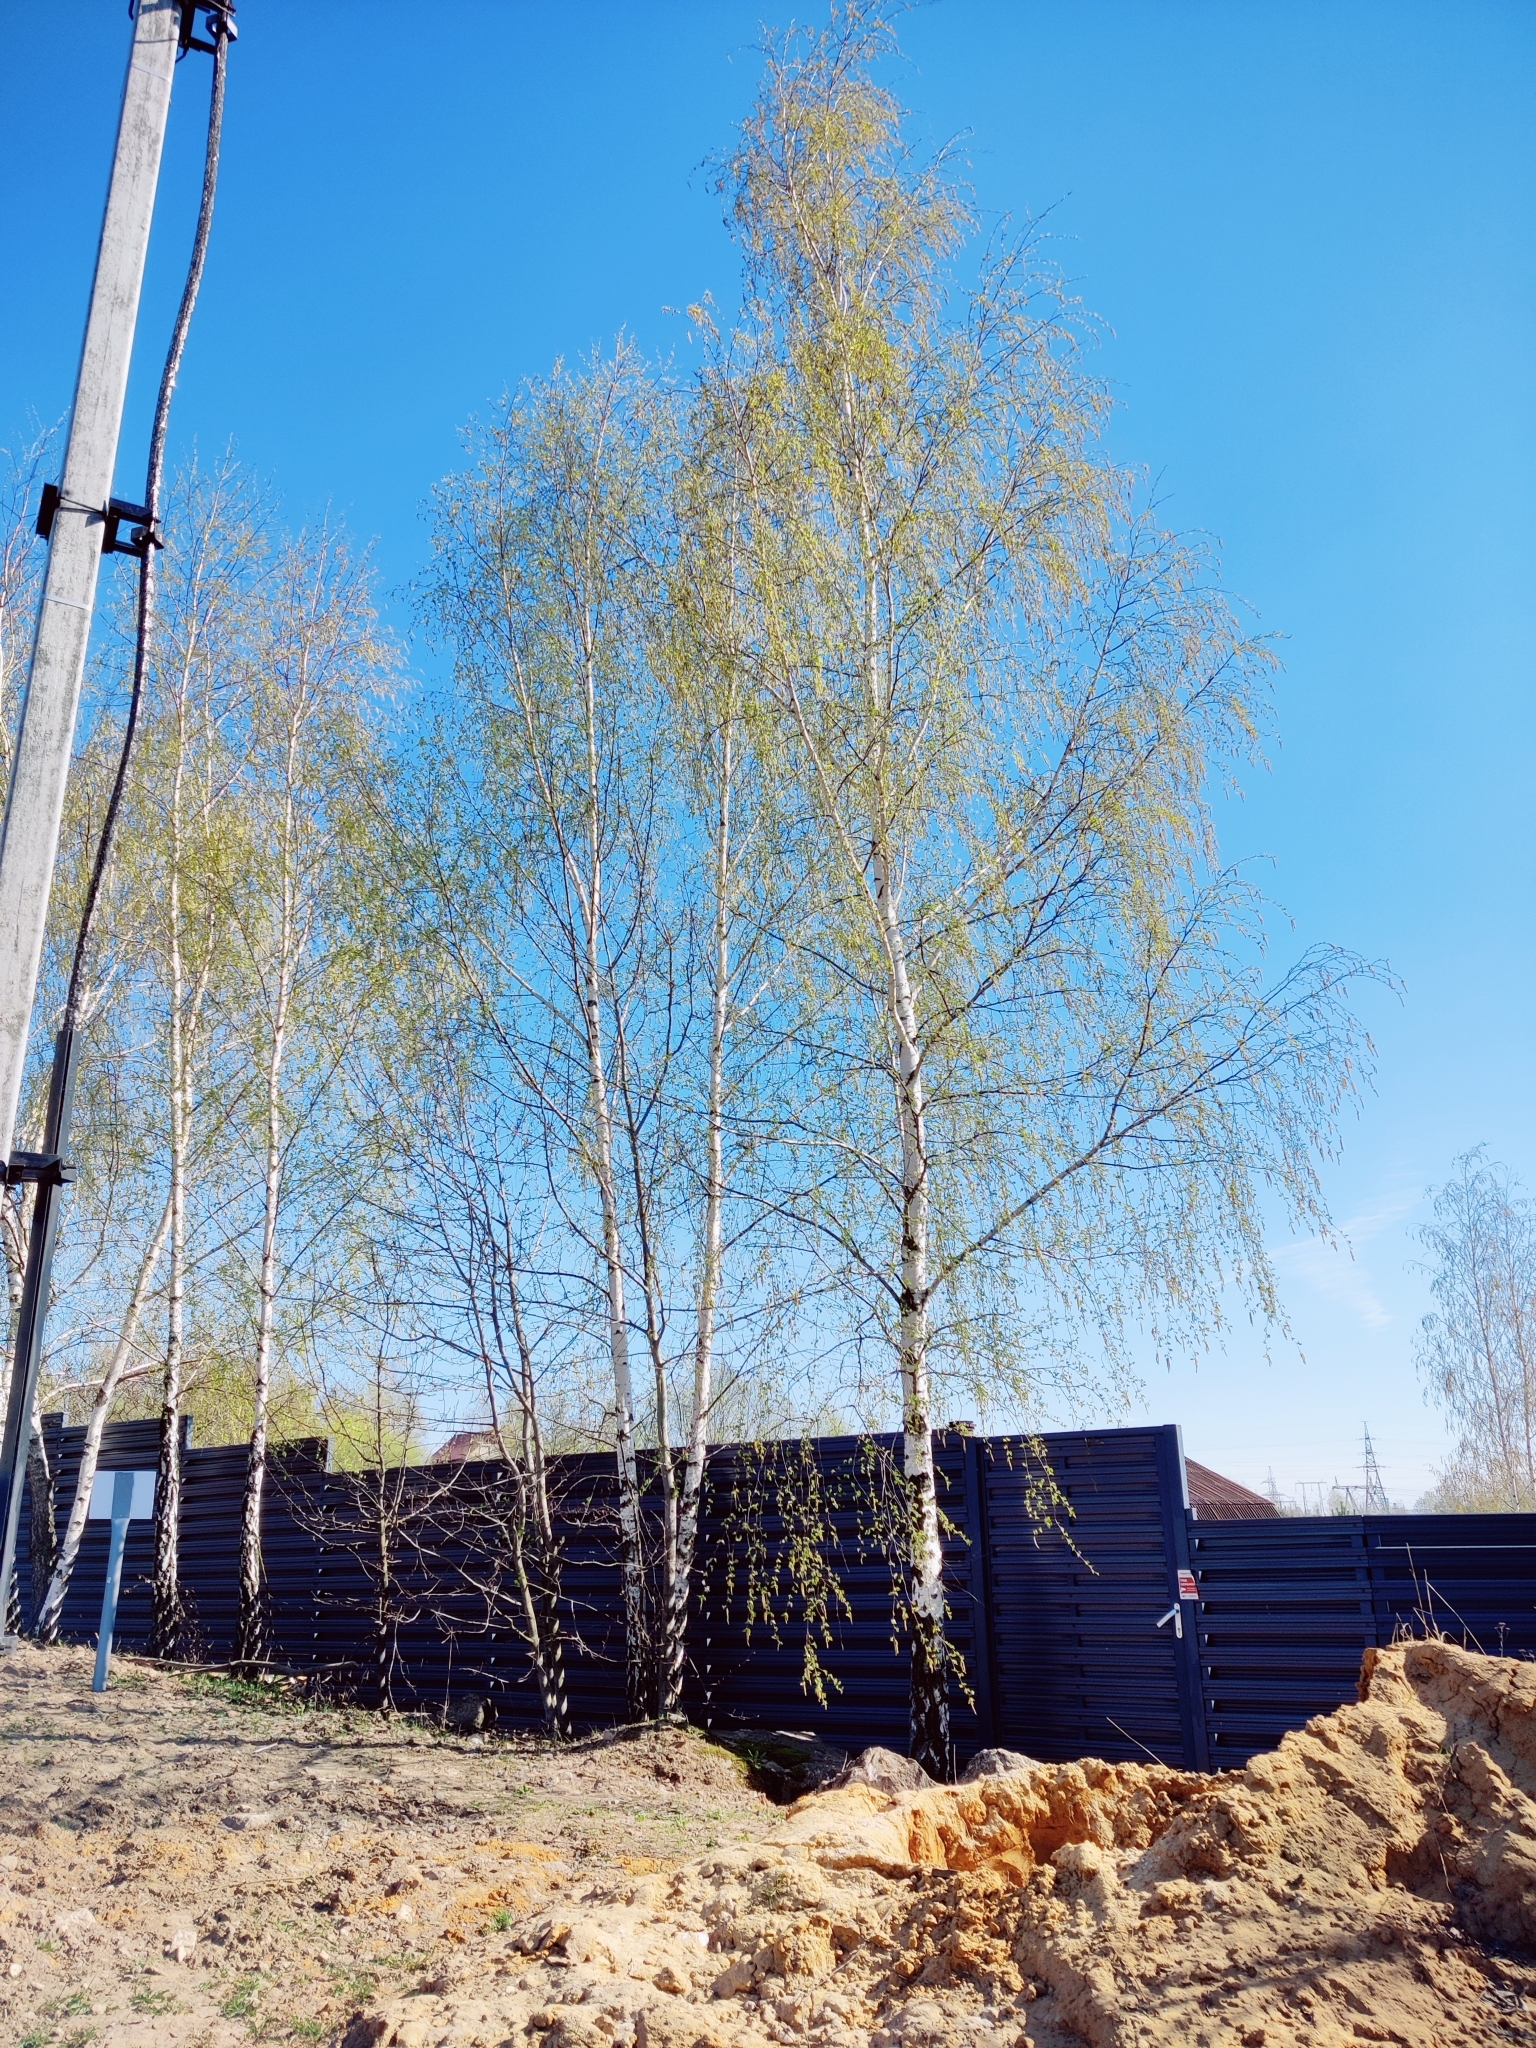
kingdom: Plantae
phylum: Tracheophyta
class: Magnoliopsida
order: Fagales
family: Betulaceae
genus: Betula
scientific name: Betula pendula
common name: Silver birch
